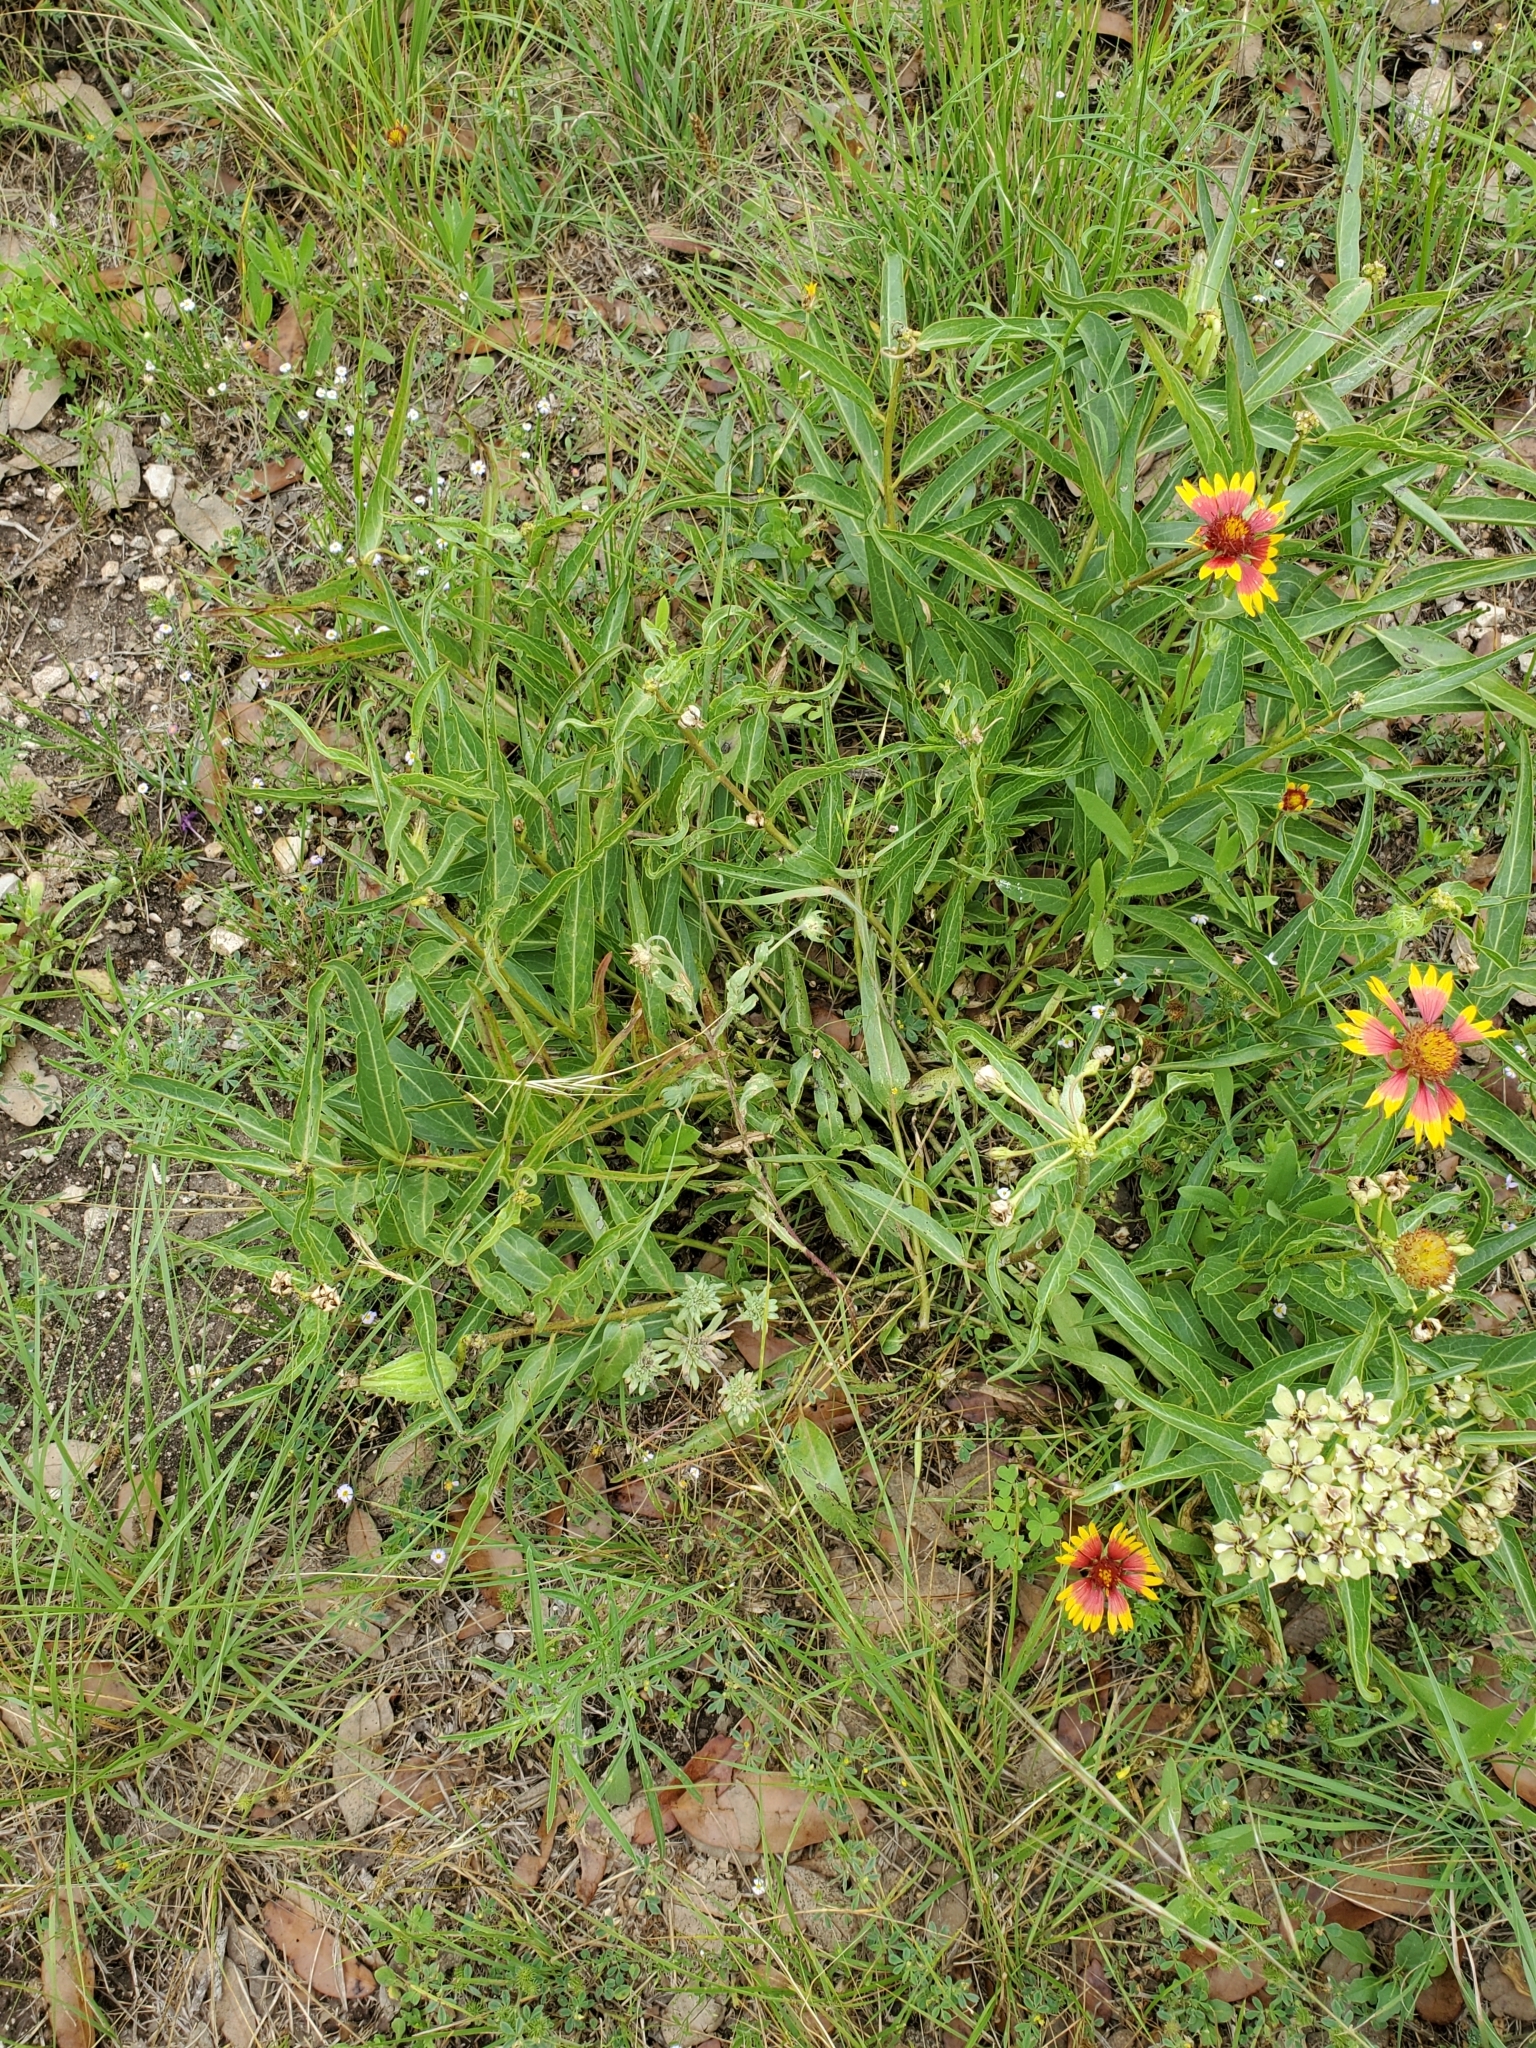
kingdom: Plantae
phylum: Tracheophyta
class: Magnoliopsida
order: Gentianales
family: Apocynaceae
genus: Asclepias
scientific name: Asclepias asperula
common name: Antelope horns
